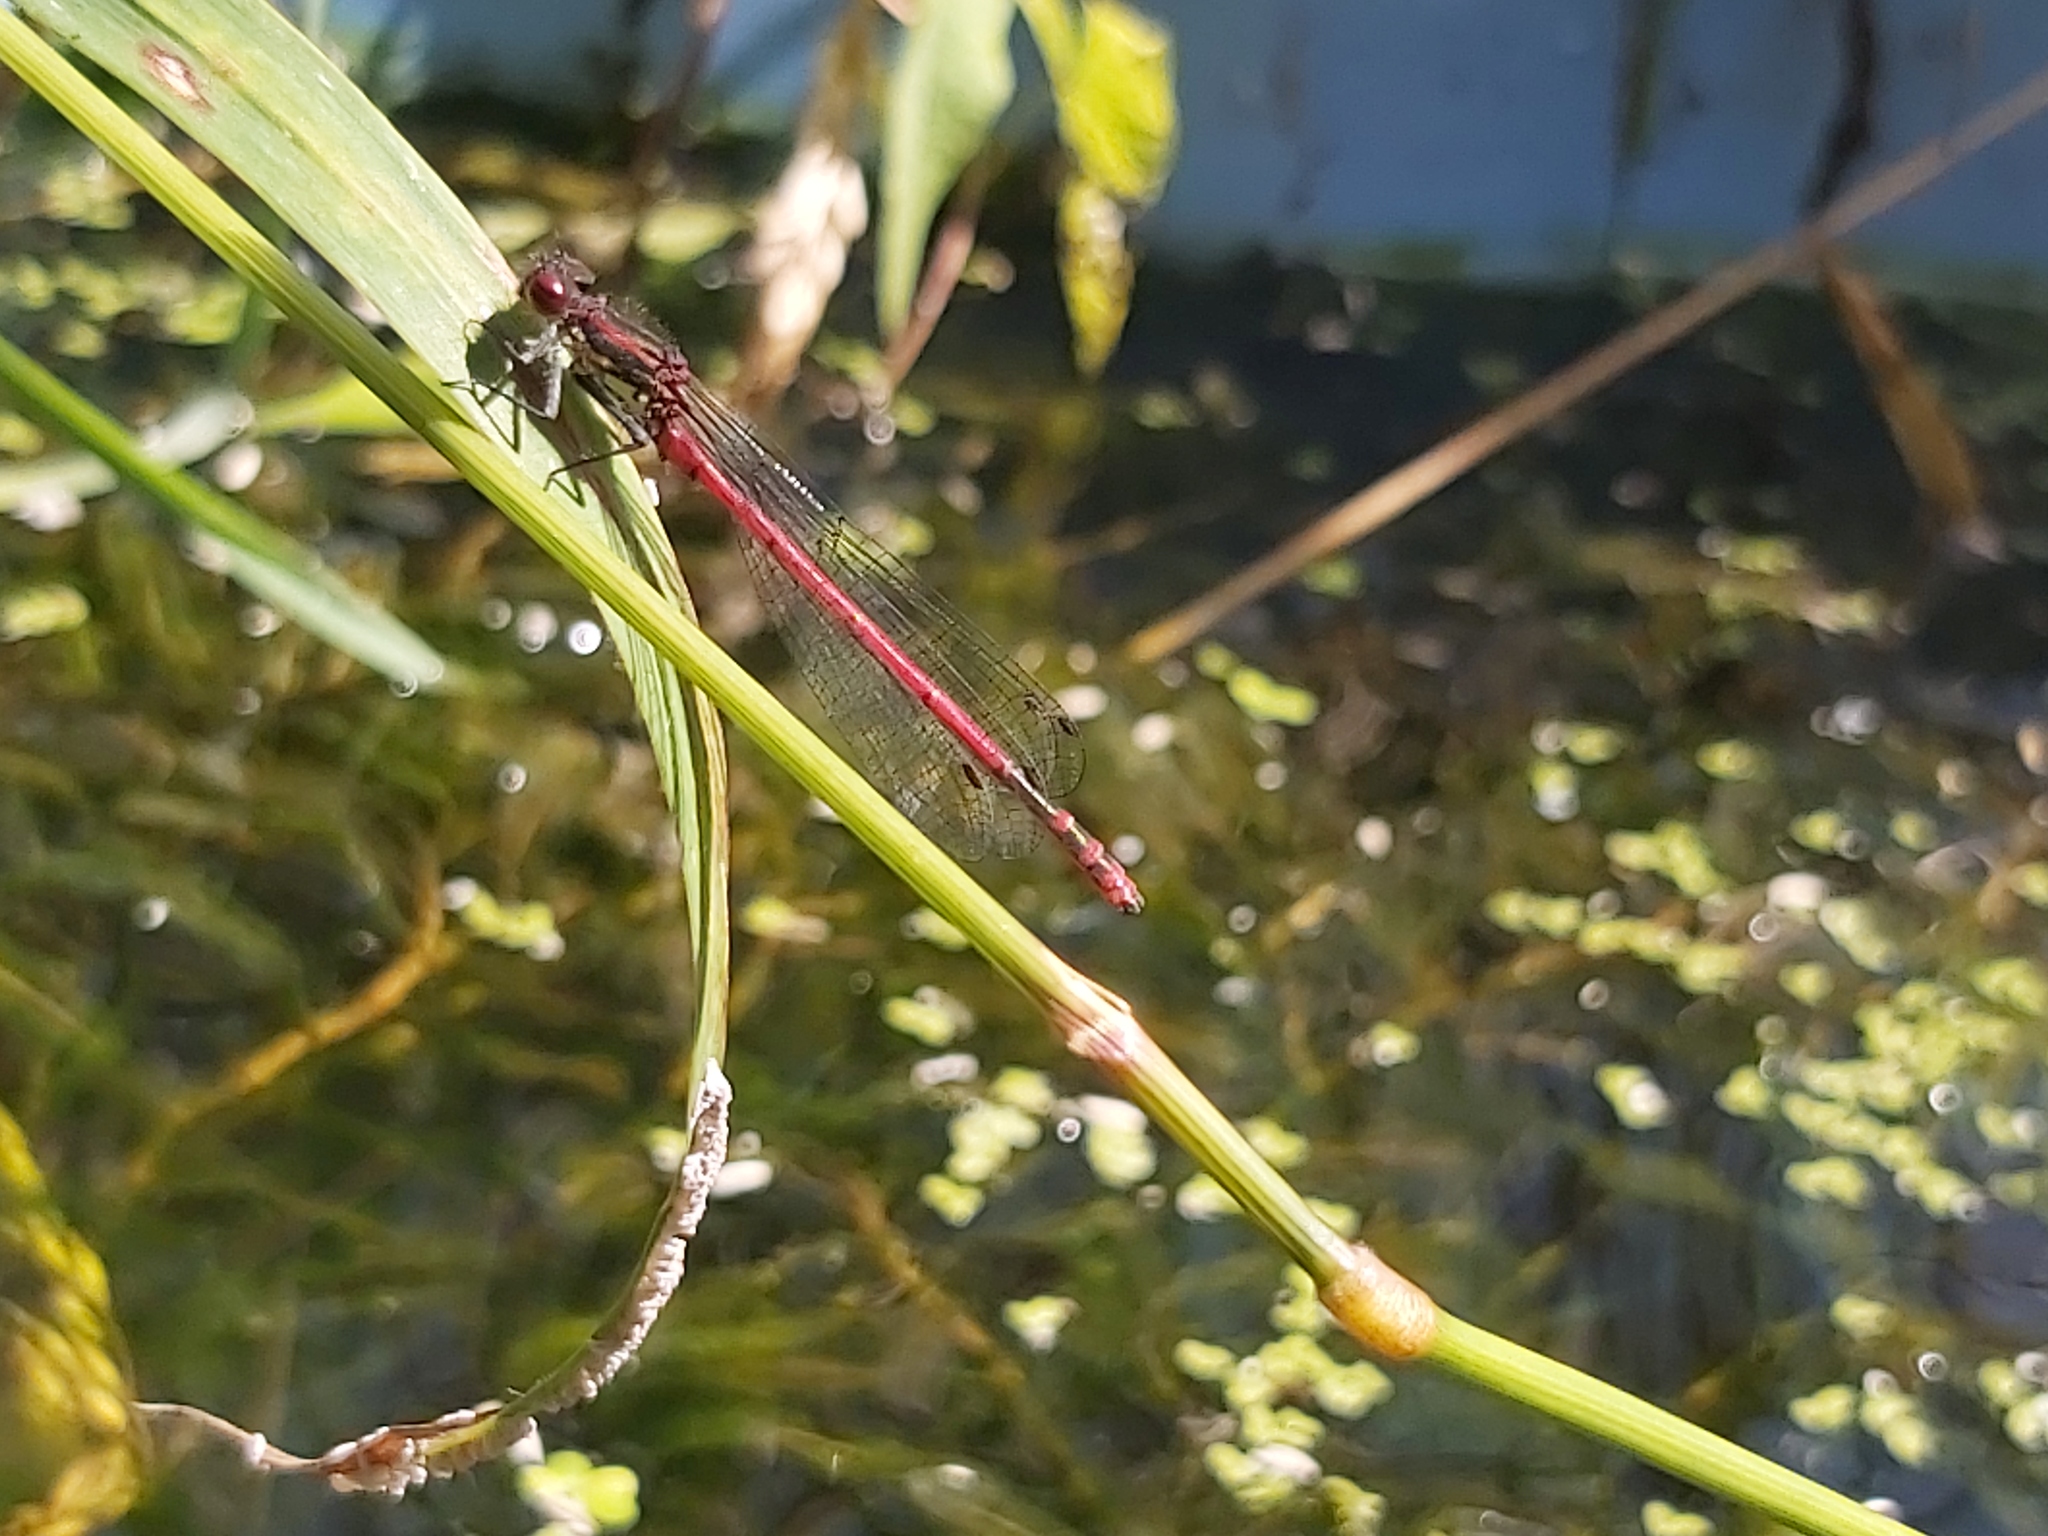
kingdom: Animalia
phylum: Arthropoda
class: Insecta
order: Odonata
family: Coenagrionidae
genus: Pyrrhosoma
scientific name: Pyrrhosoma nymphula
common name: Large red damsel
